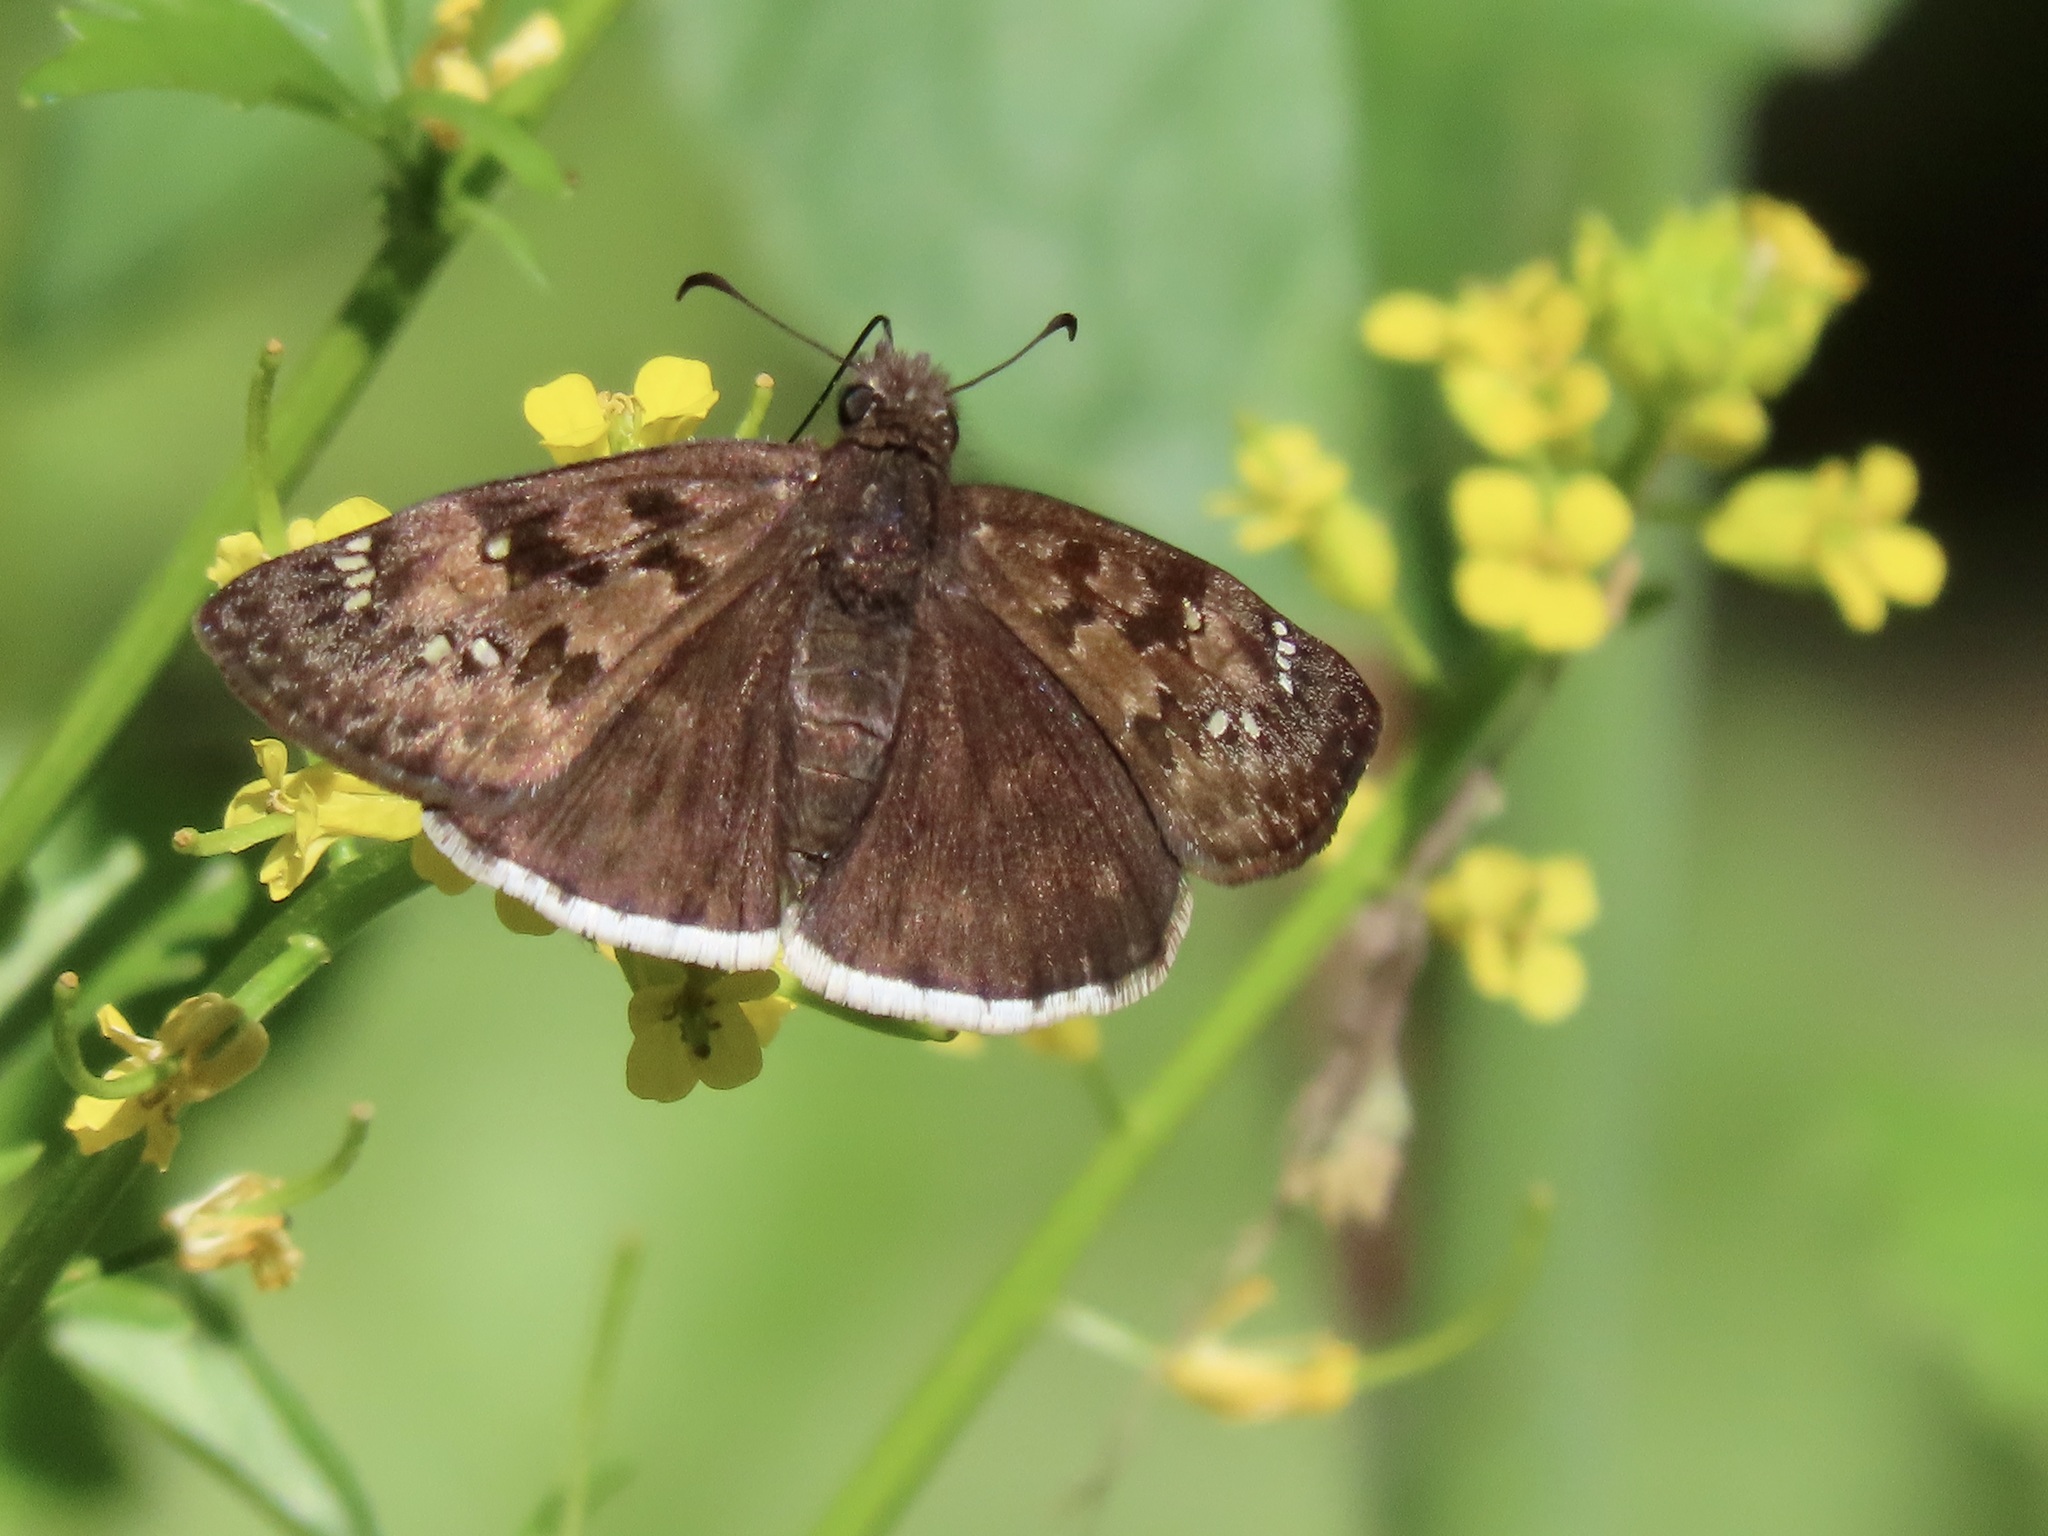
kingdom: Animalia
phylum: Arthropoda
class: Insecta
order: Lepidoptera
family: Hesperiidae
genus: Erynnis
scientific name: Erynnis tristis
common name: Mournful duskywing
